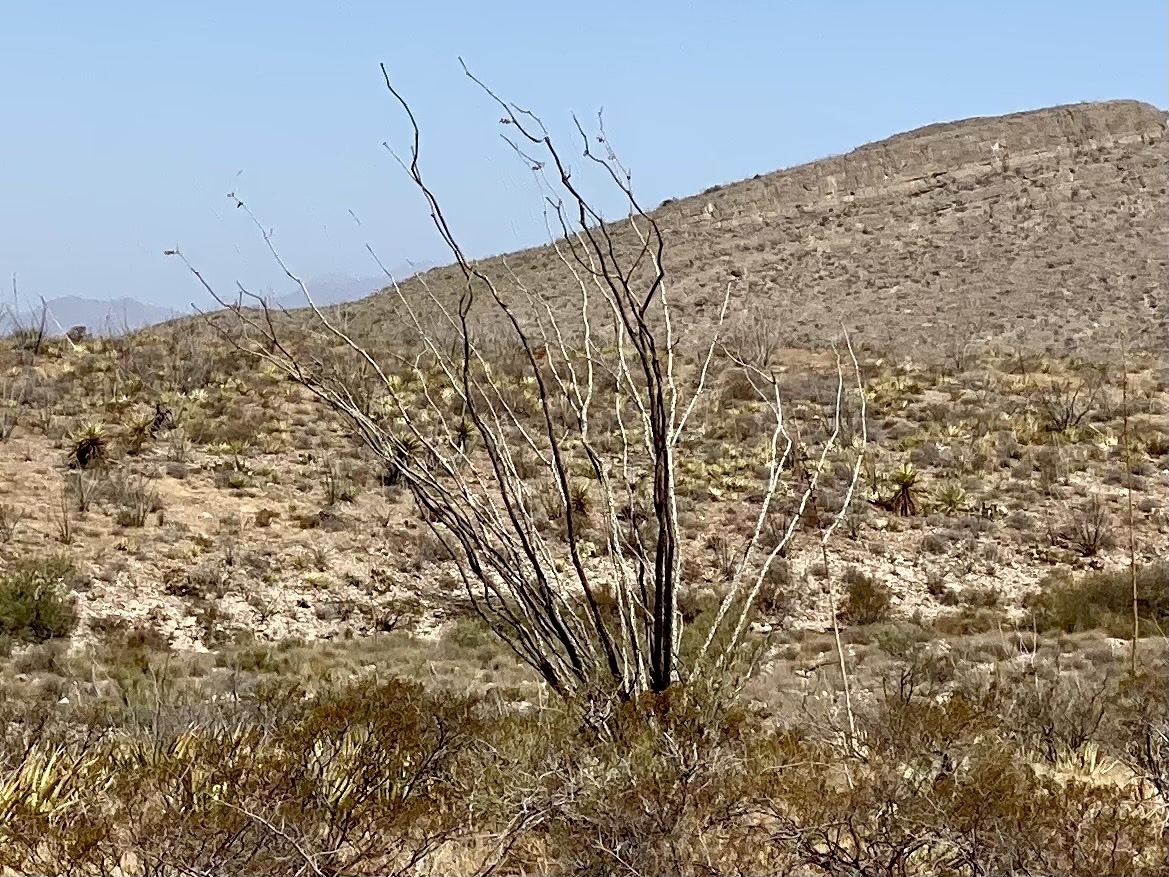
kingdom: Plantae
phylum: Tracheophyta
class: Magnoliopsida
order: Ericales
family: Fouquieriaceae
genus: Fouquieria
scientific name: Fouquieria splendens
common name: Vine-cactus
